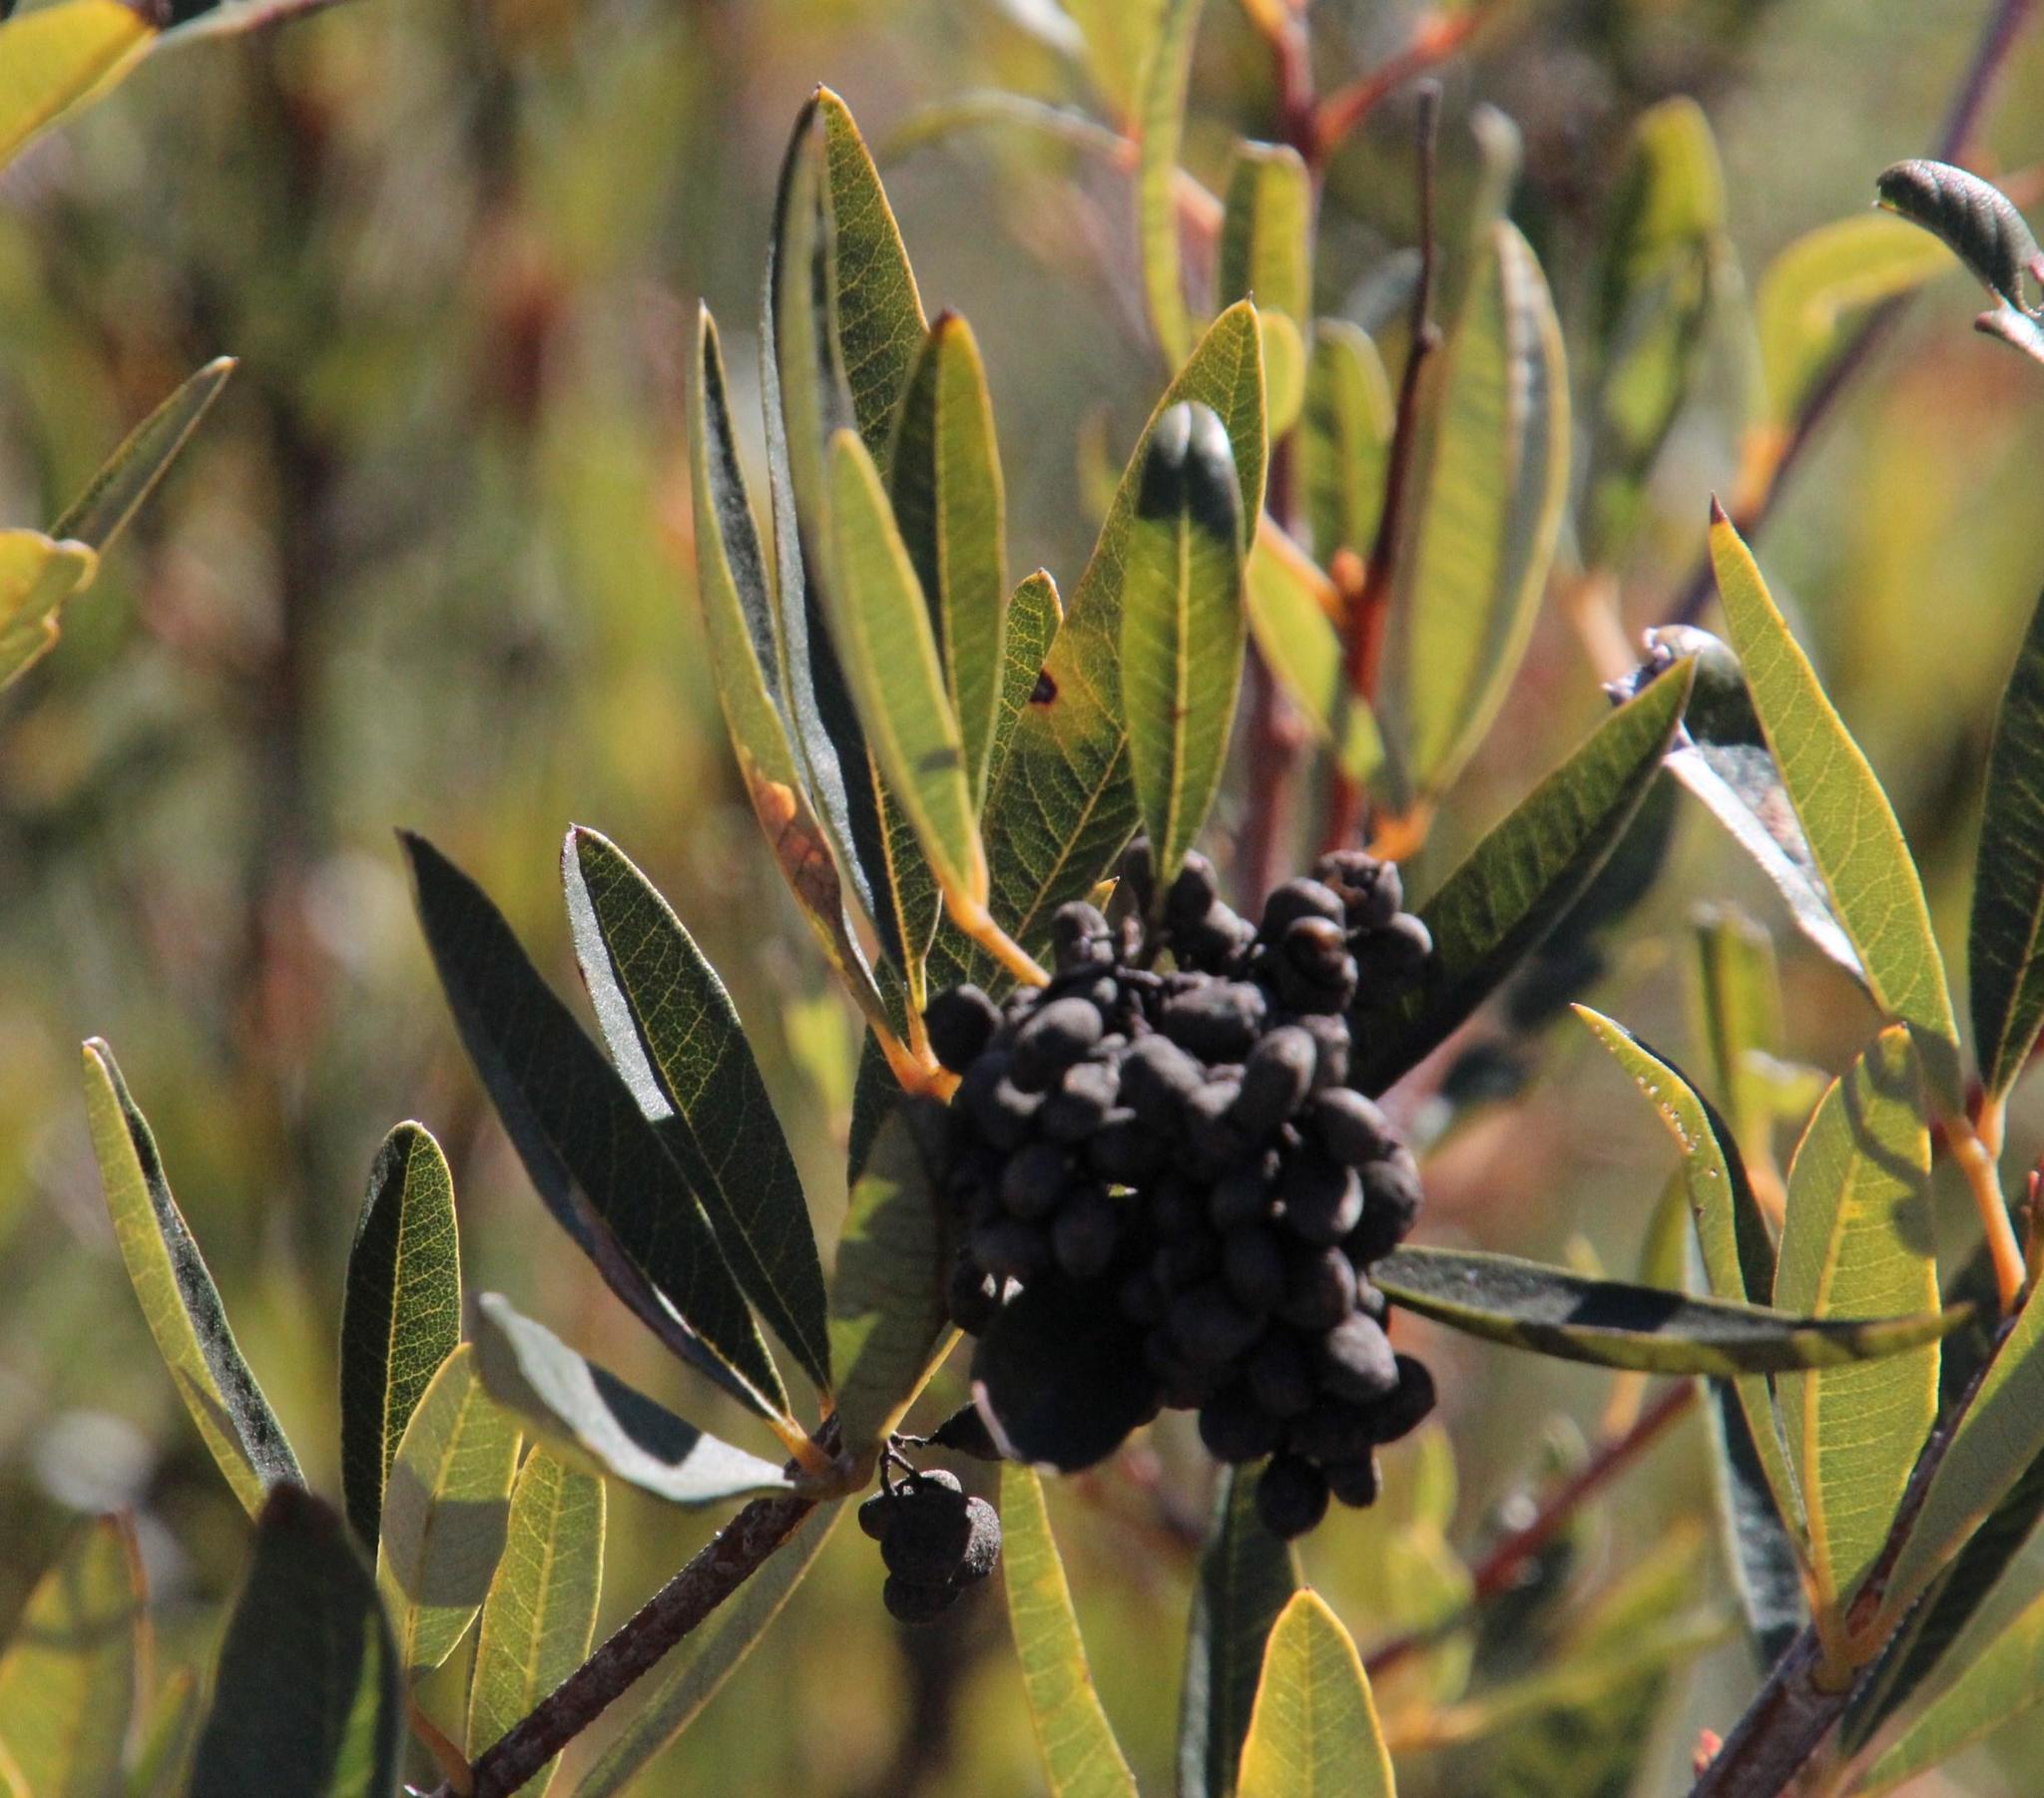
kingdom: Plantae
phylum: Tracheophyta
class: Magnoliopsida
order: Sapindales
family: Anacardiaceae
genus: Searsia
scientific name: Searsia angustifolia
